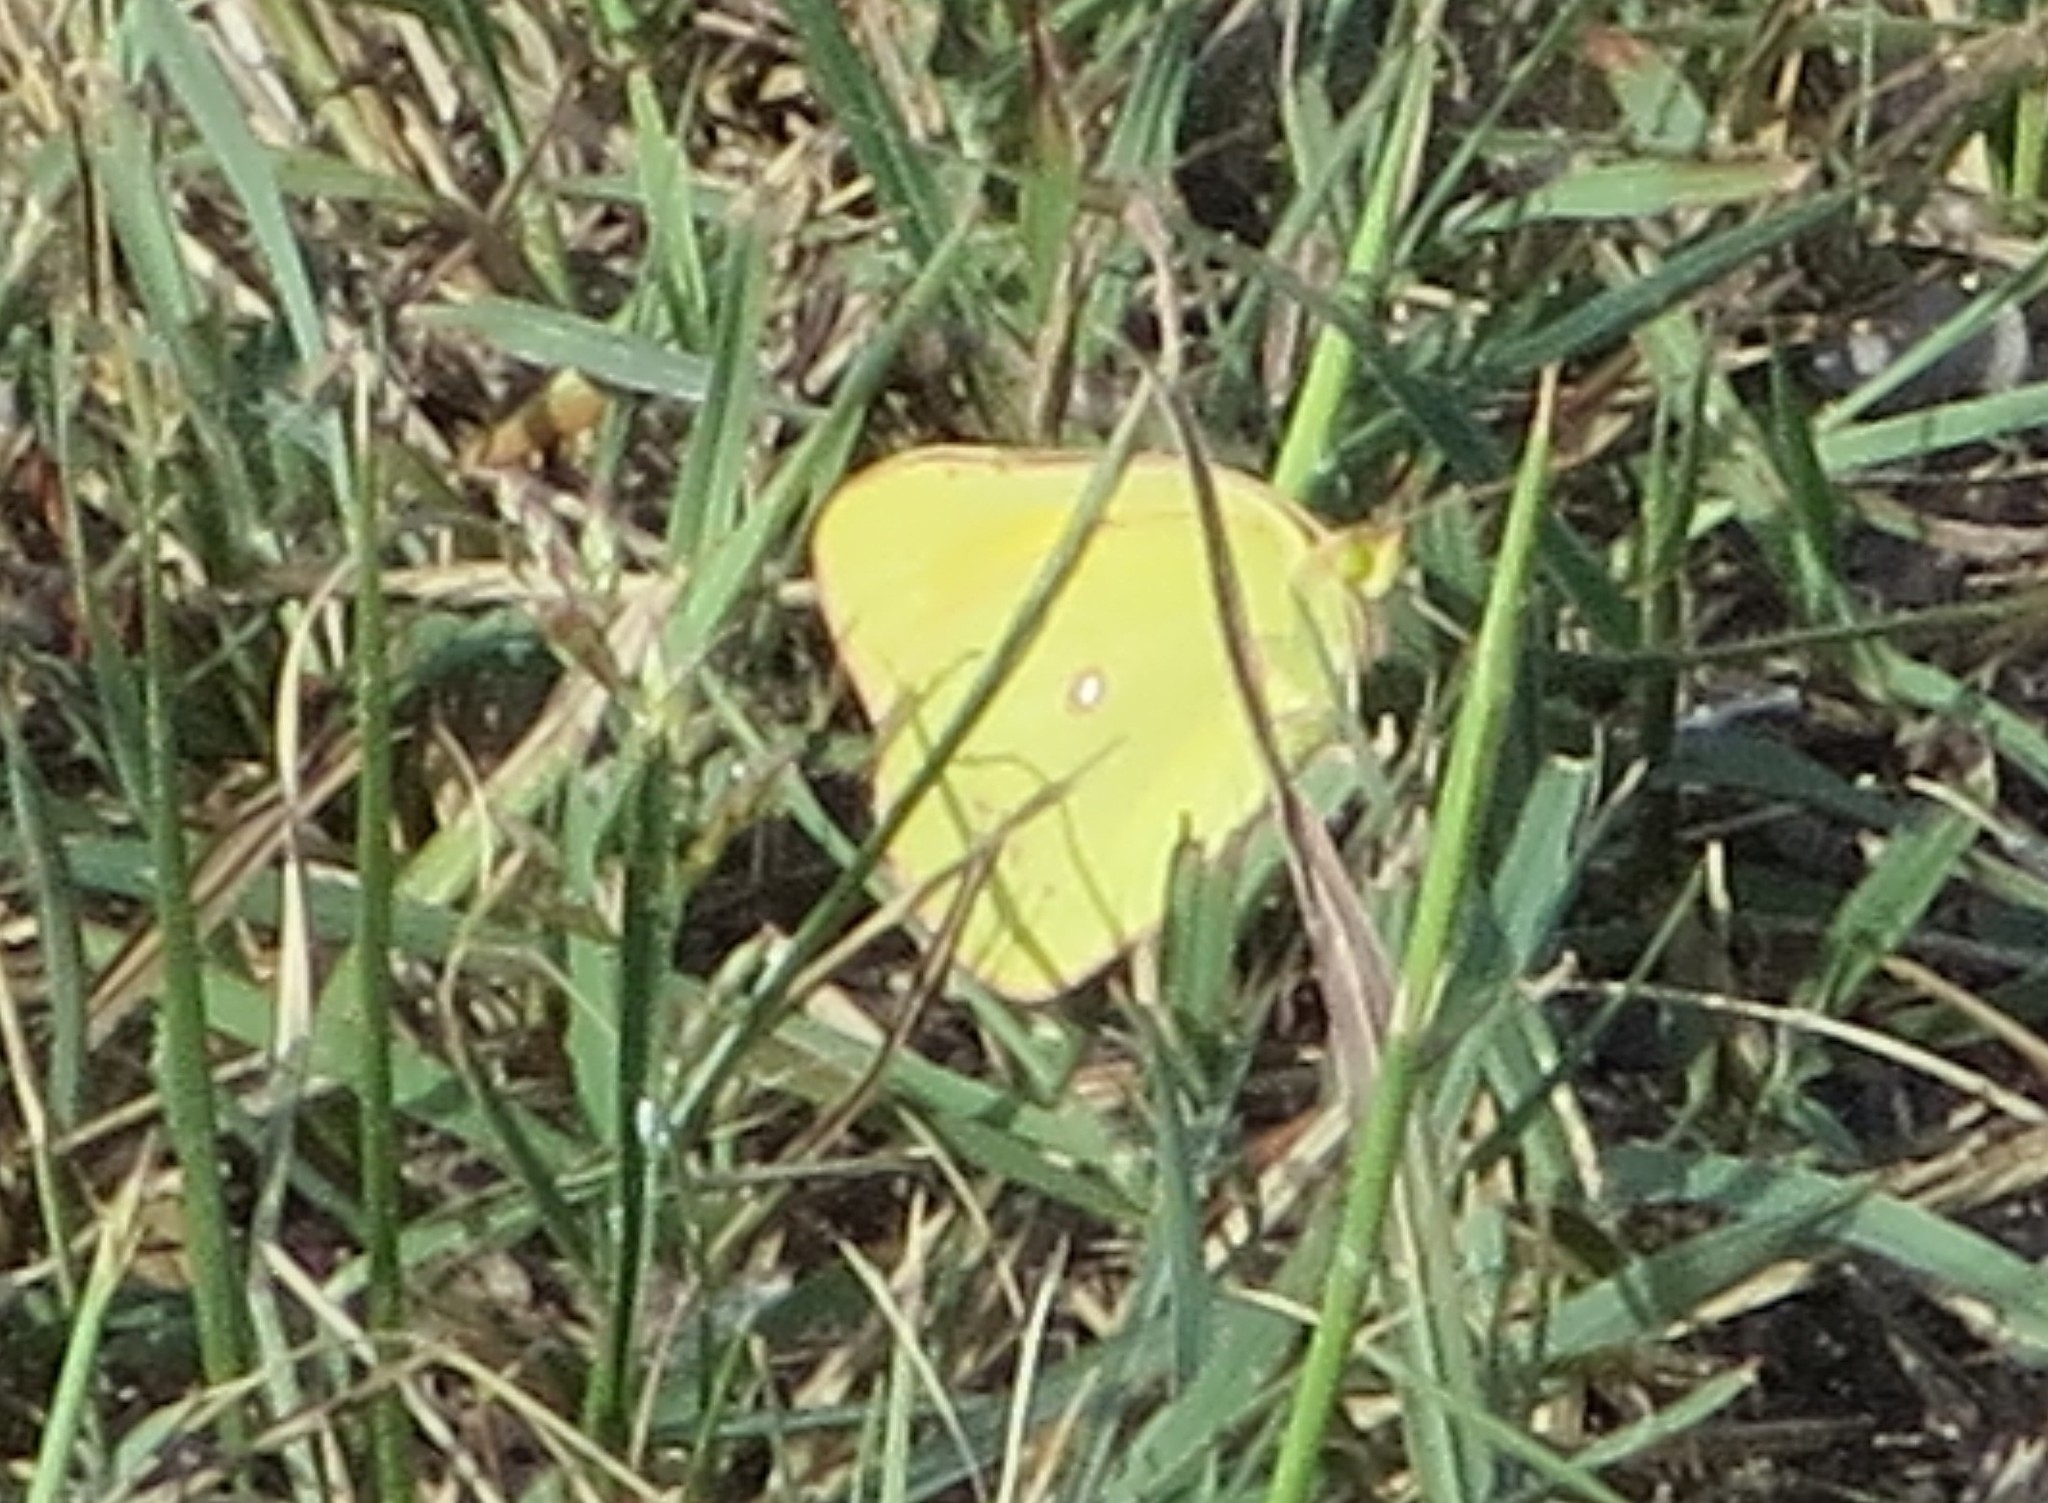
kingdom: Animalia
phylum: Arthropoda
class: Insecta
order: Lepidoptera
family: Pieridae
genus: Colias
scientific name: Colias eurytheme
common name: Alfalfa butterfly
